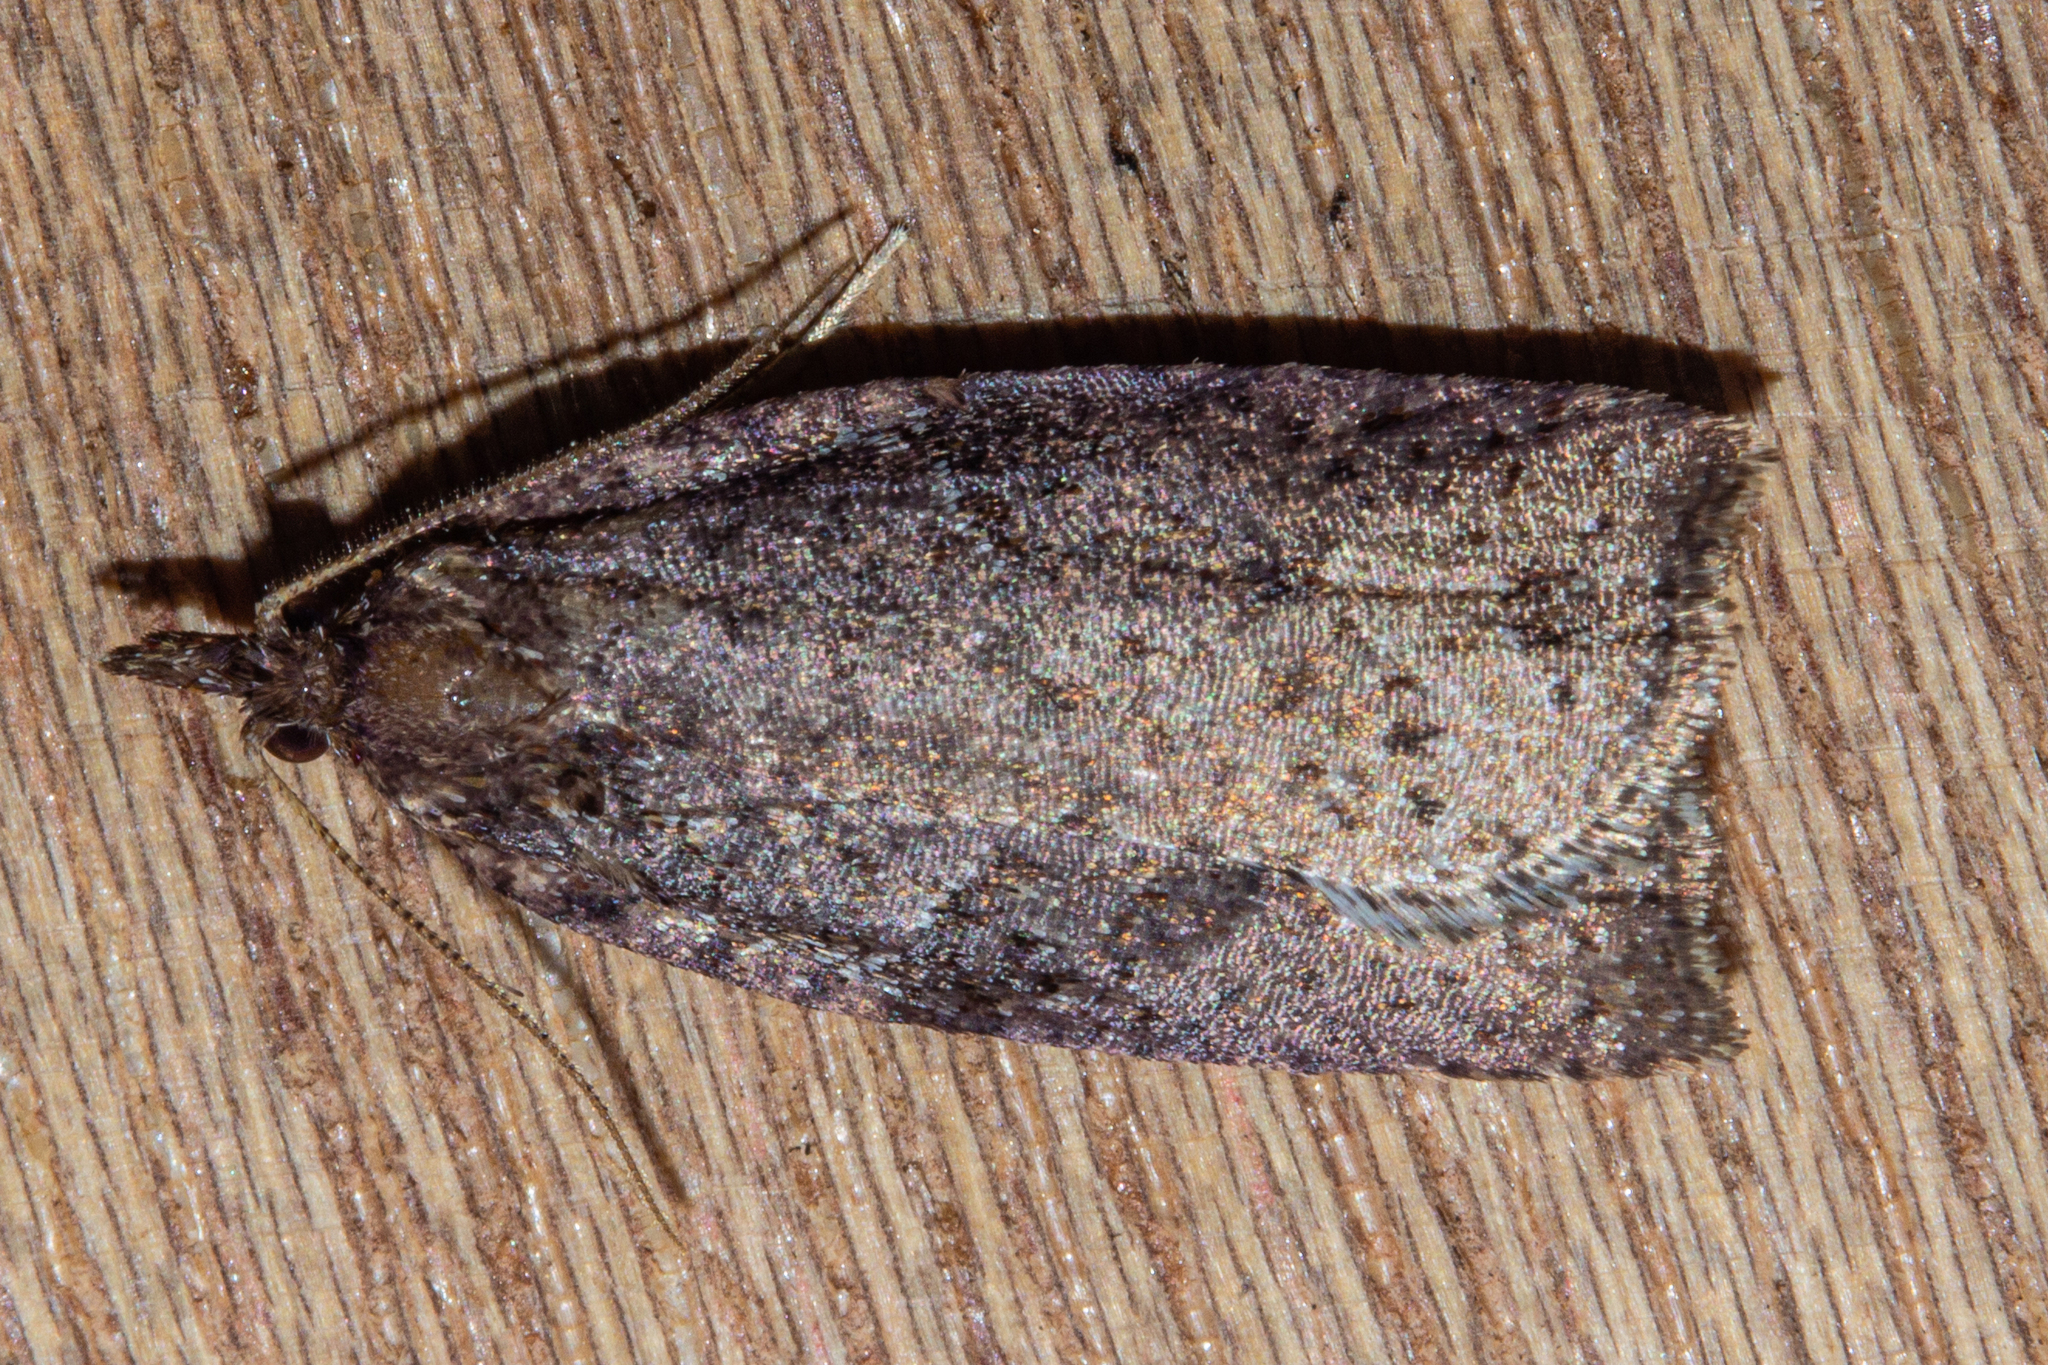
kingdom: Animalia
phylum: Arthropoda
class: Insecta
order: Lepidoptera
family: Tortricidae
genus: Ctenopseustis
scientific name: Ctenopseustis obliquana
